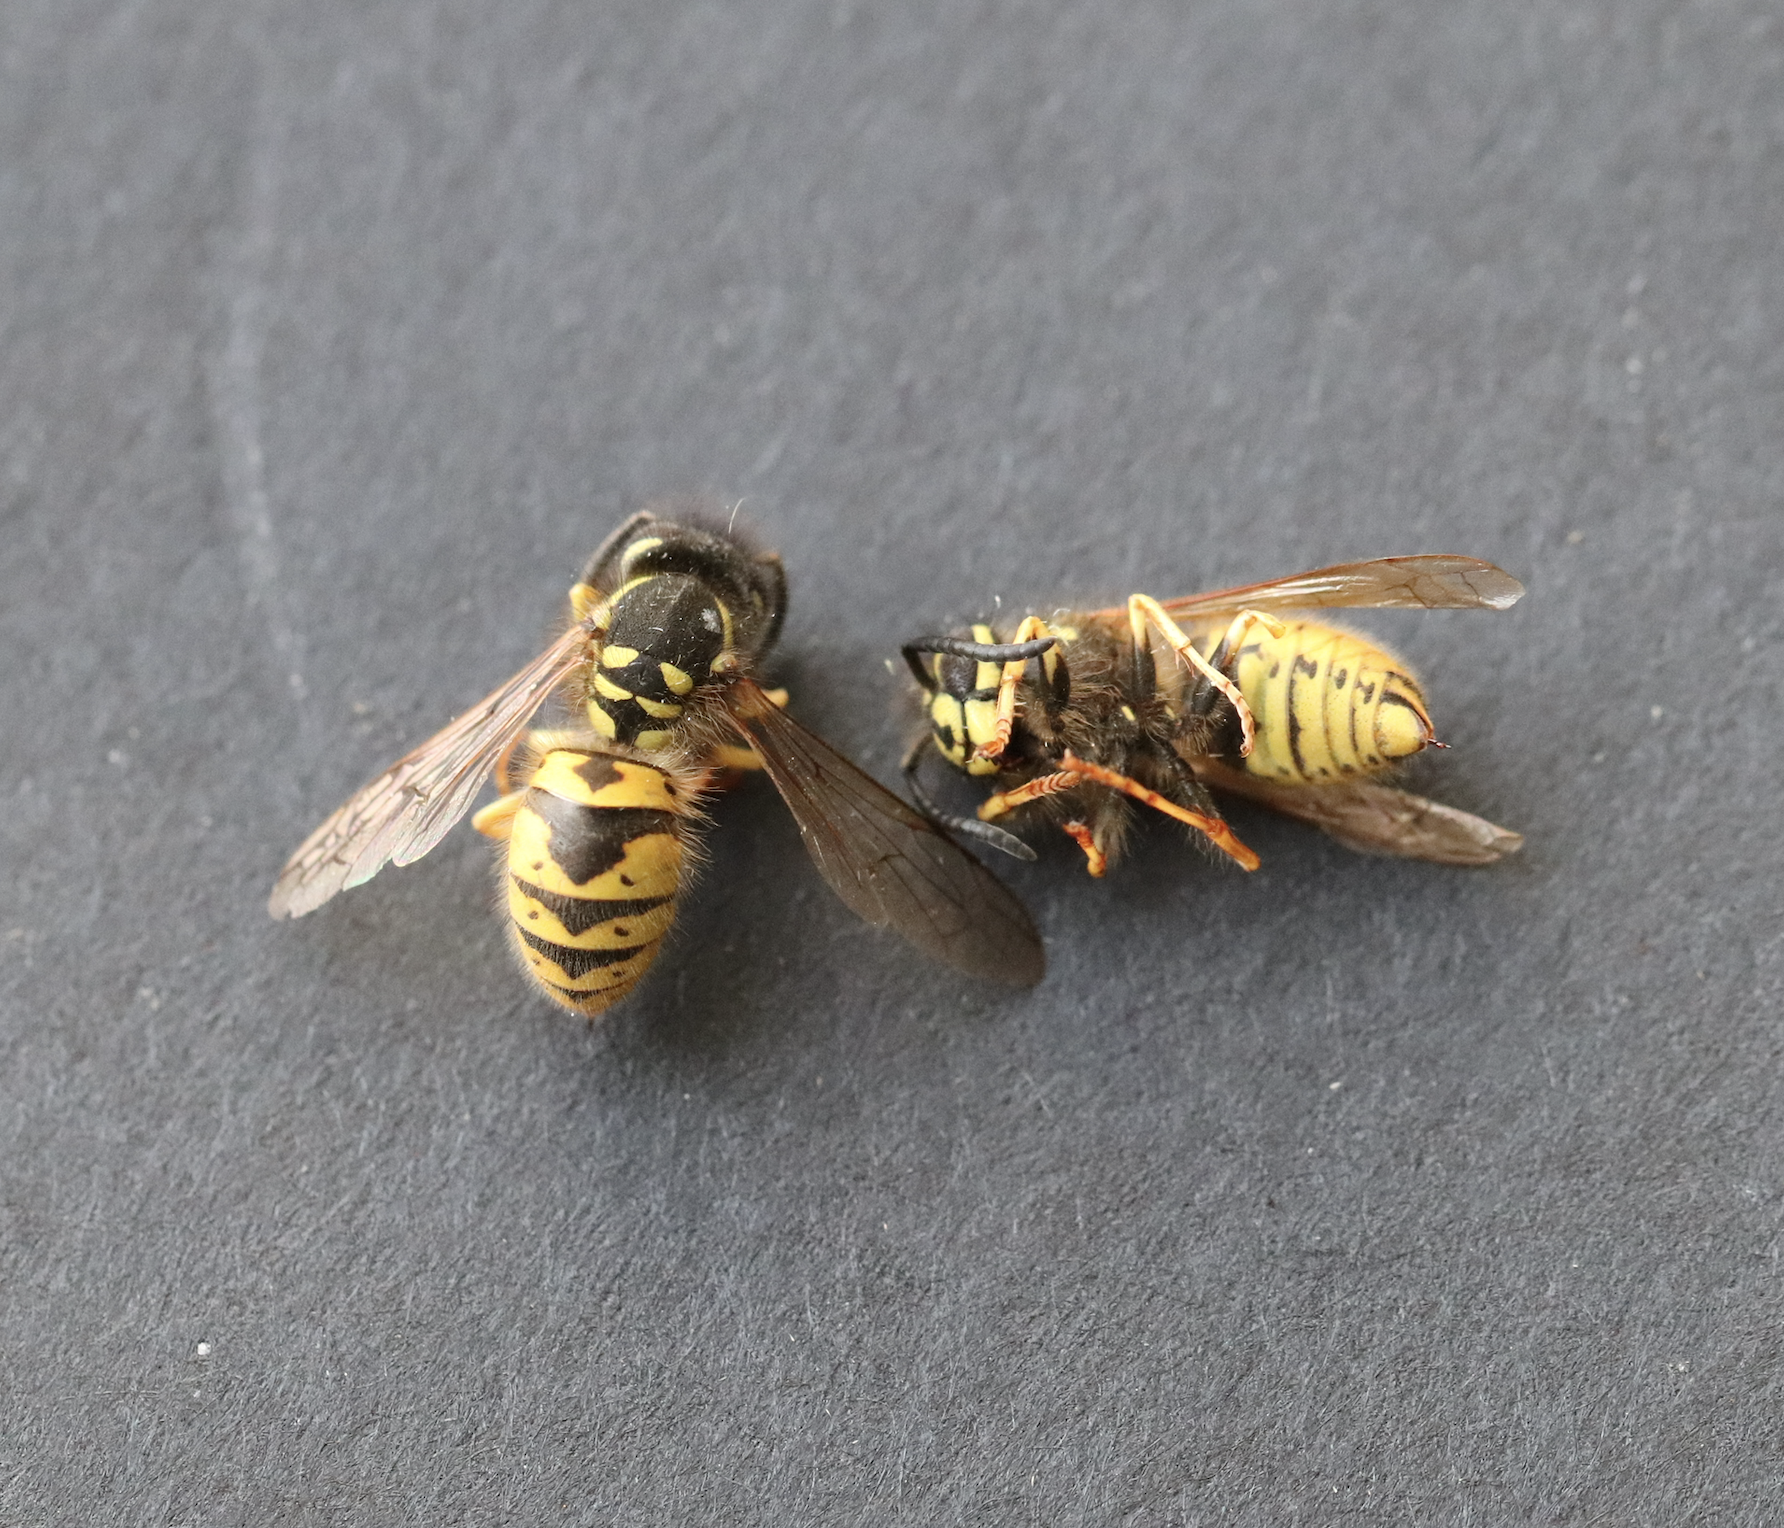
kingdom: Animalia
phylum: Arthropoda
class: Insecta
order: Hymenoptera
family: Vespidae
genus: Vespula
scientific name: Vespula germanica
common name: German wasp
